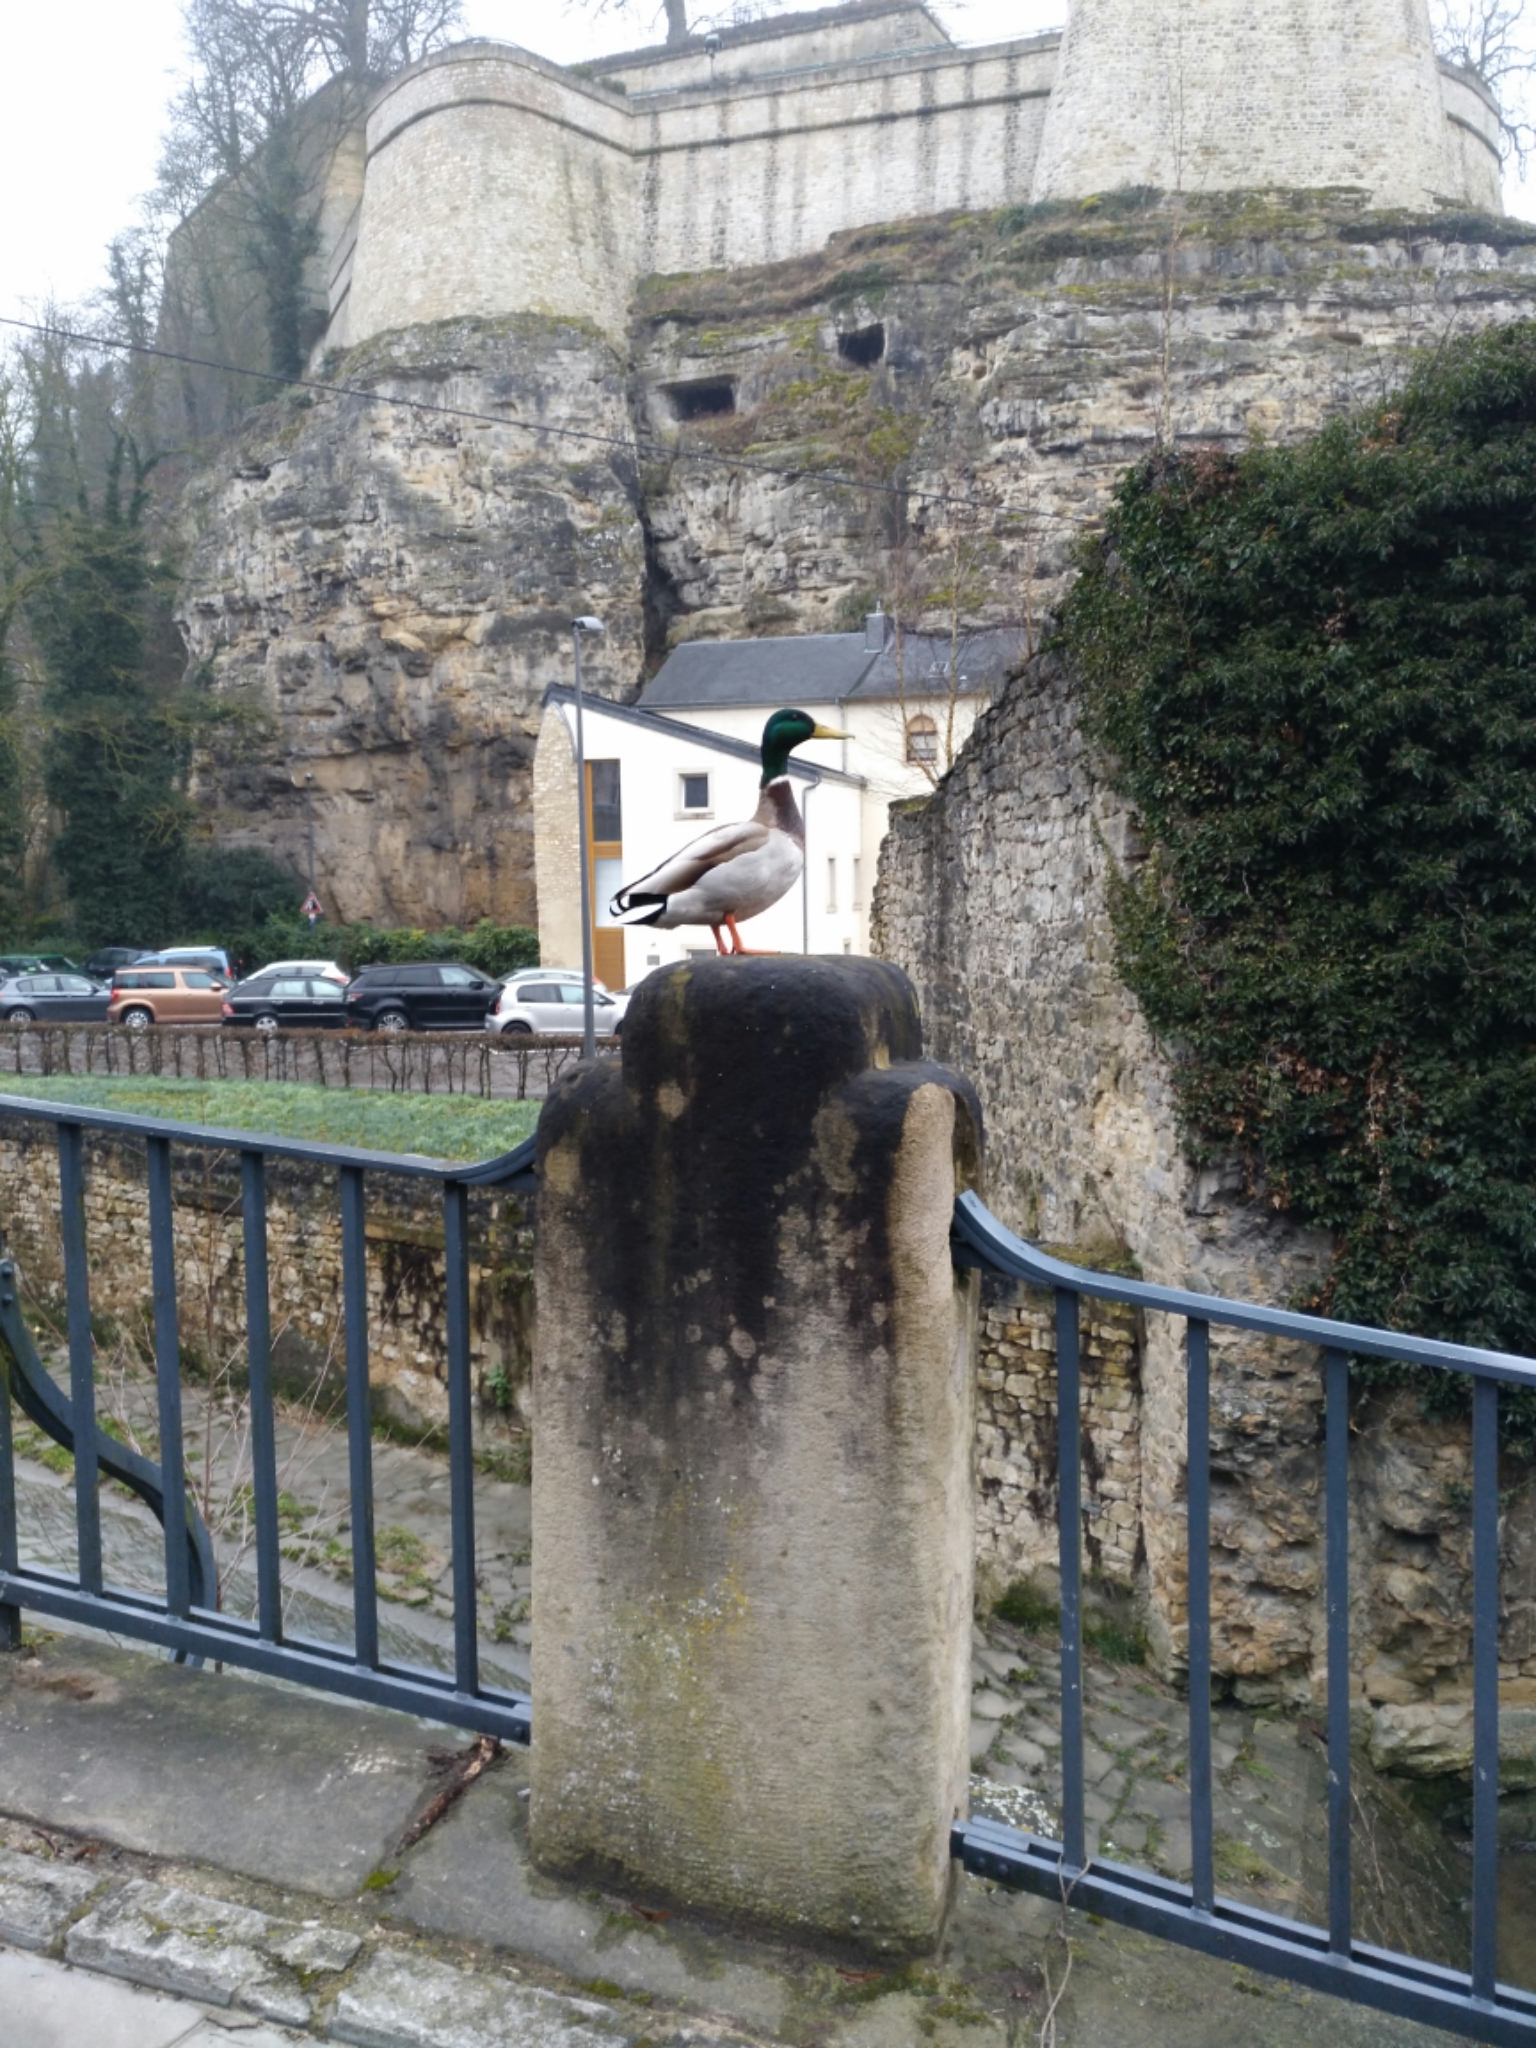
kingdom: Animalia
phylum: Chordata
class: Aves
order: Anseriformes
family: Anatidae
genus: Anas
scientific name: Anas platyrhynchos
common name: Mallard
